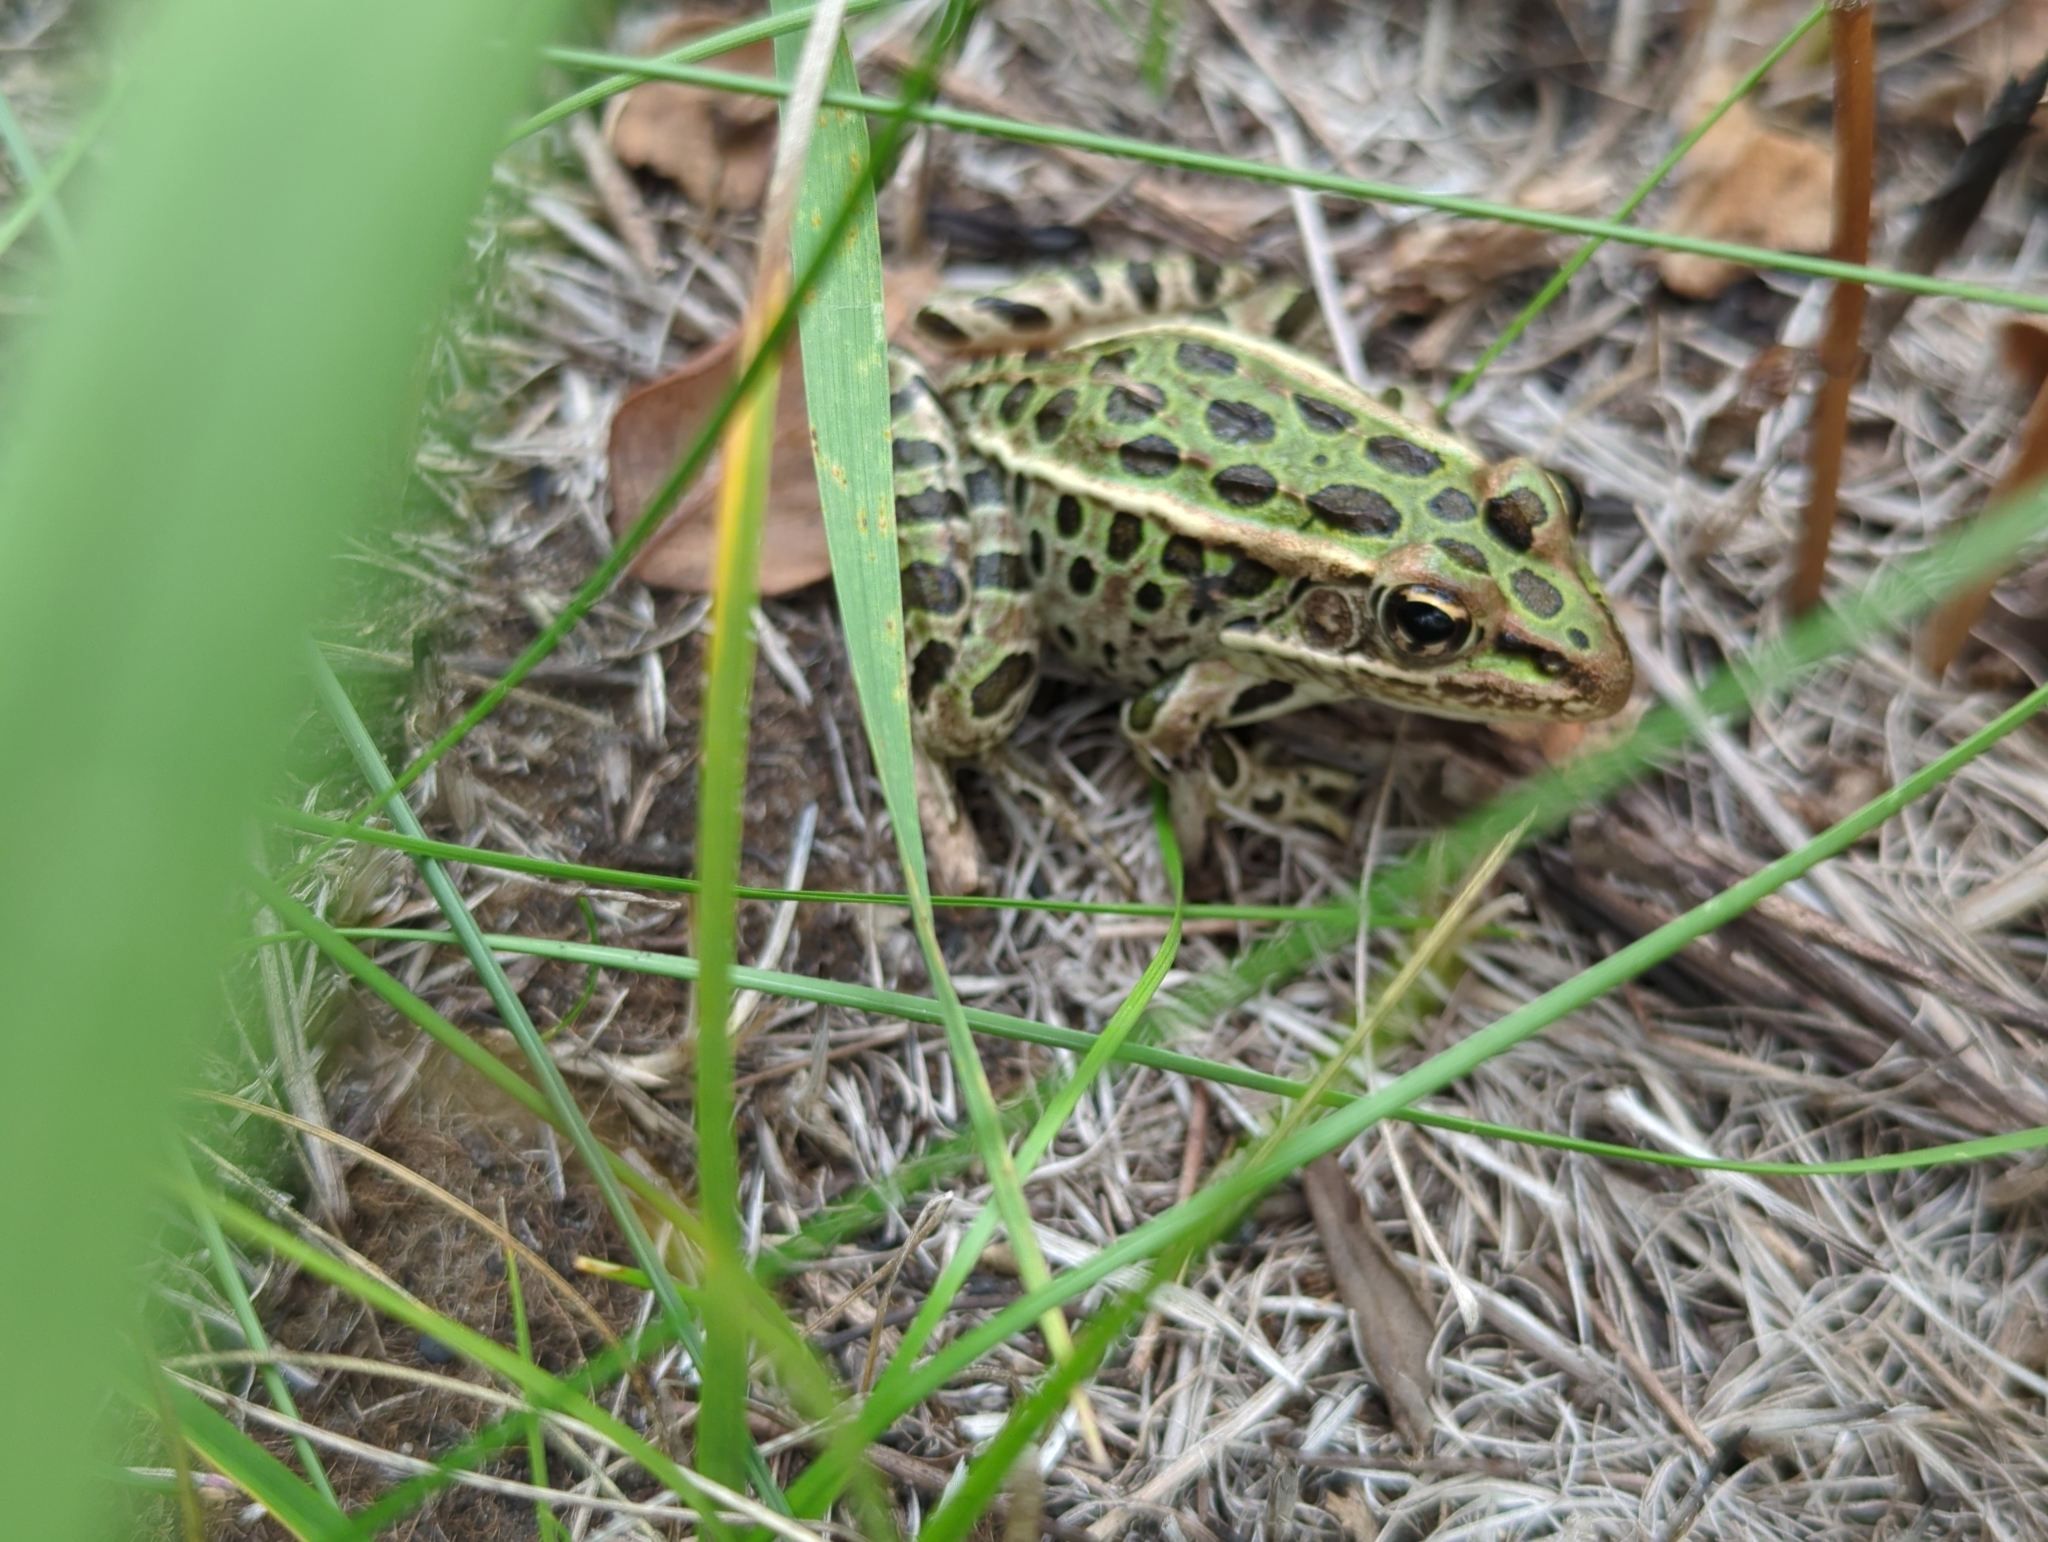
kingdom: Animalia
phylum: Chordata
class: Amphibia
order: Anura
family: Ranidae
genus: Lithobates
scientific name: Lithobates pipiens
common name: Northern leopard frog
